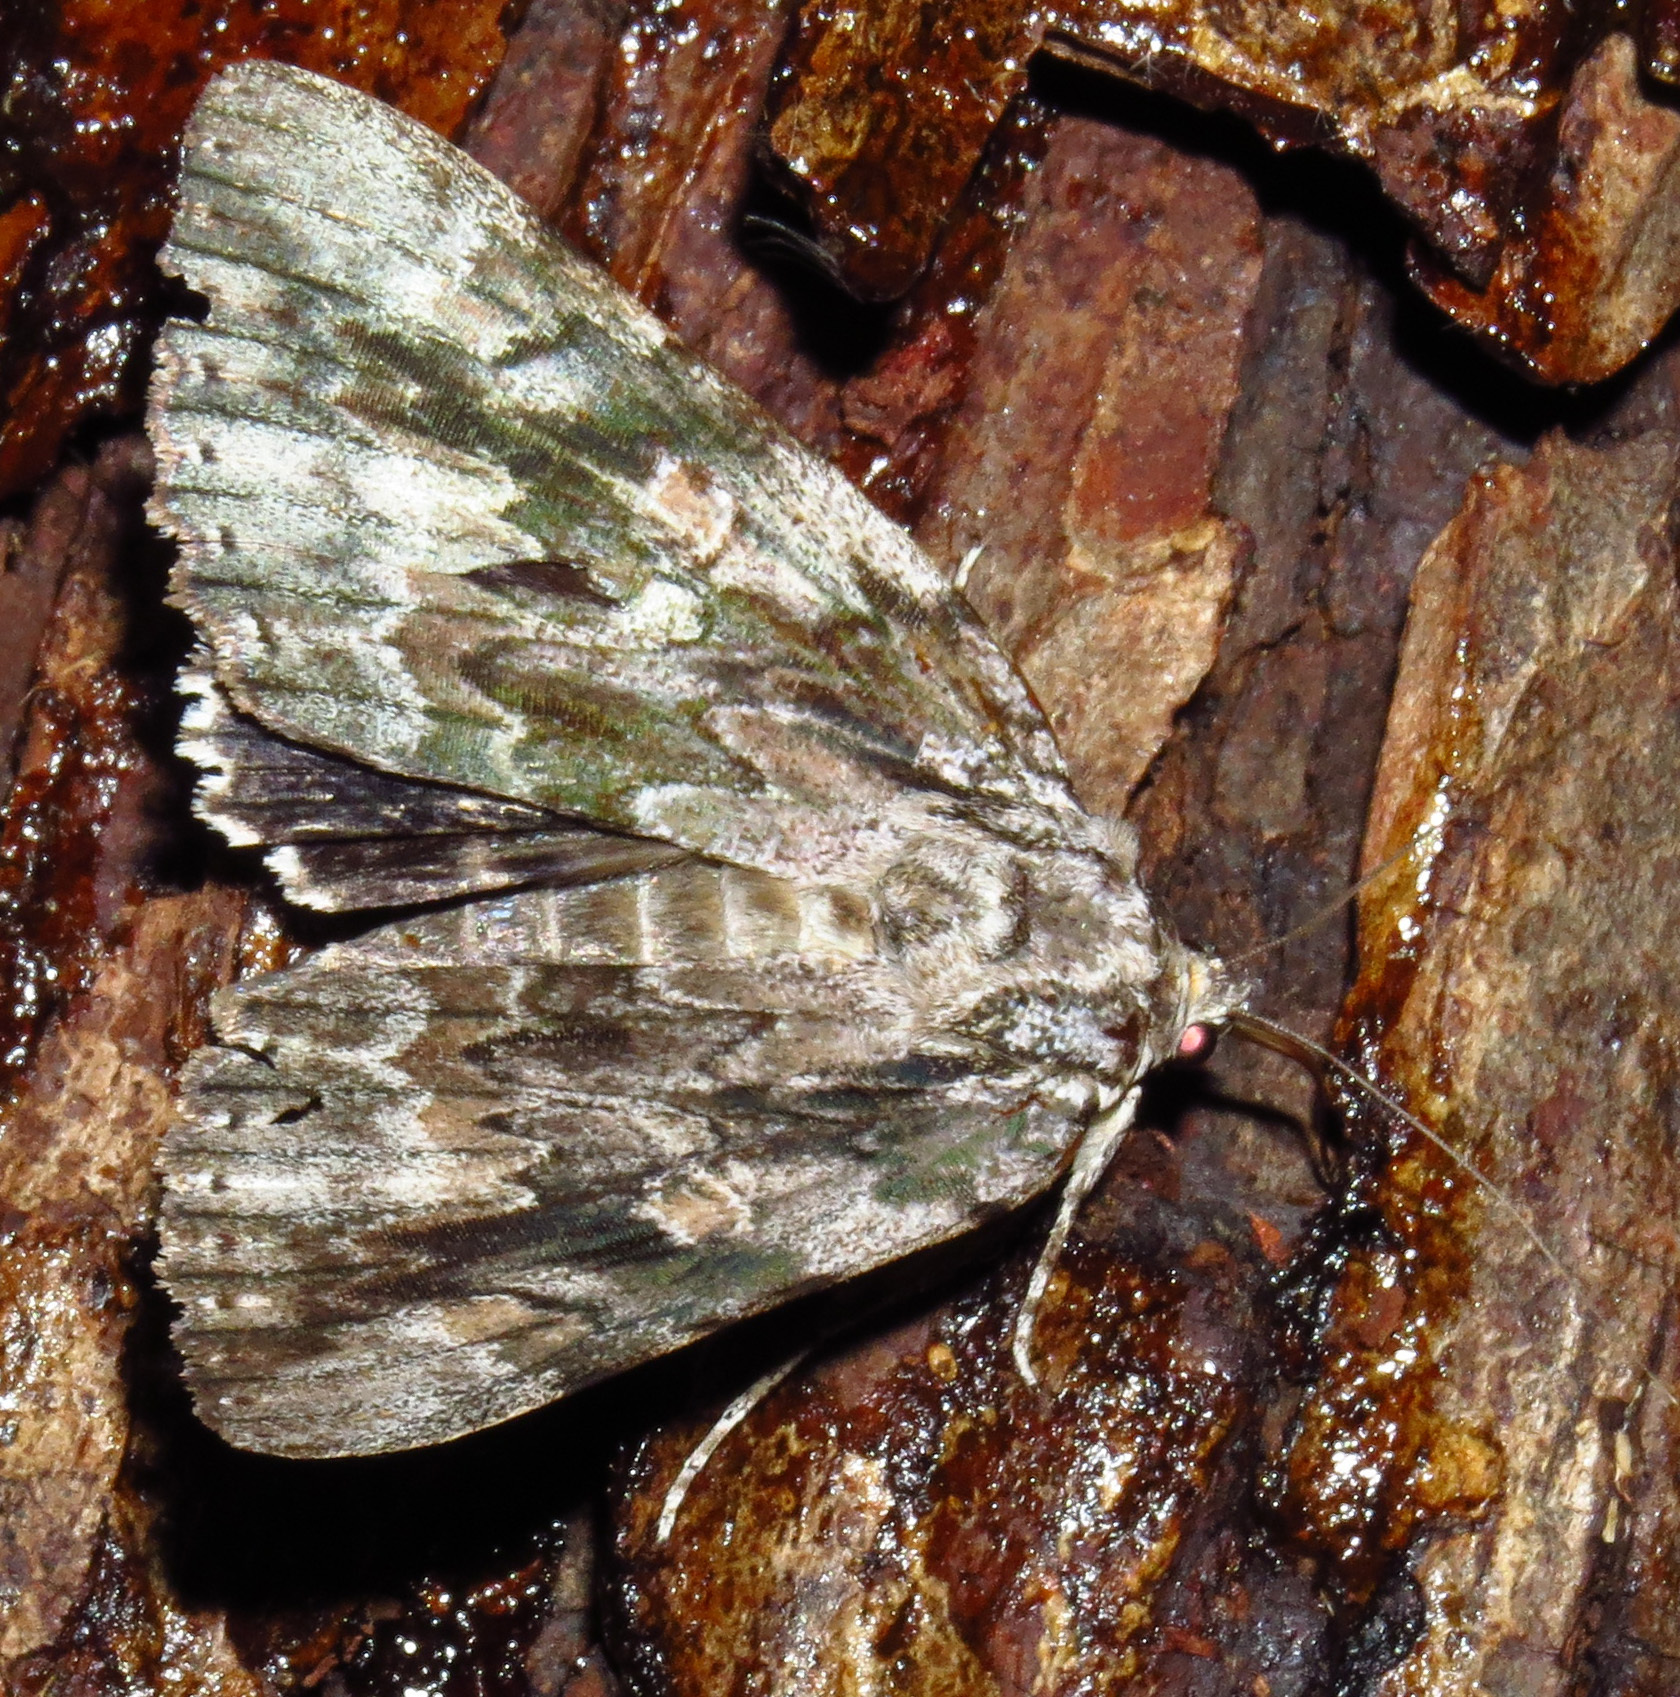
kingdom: Animalia
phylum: Arthropoda
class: Insecta
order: Lepidoptera
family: Erebidae
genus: Catocala
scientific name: Catocala maestosa
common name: Sad underwing
